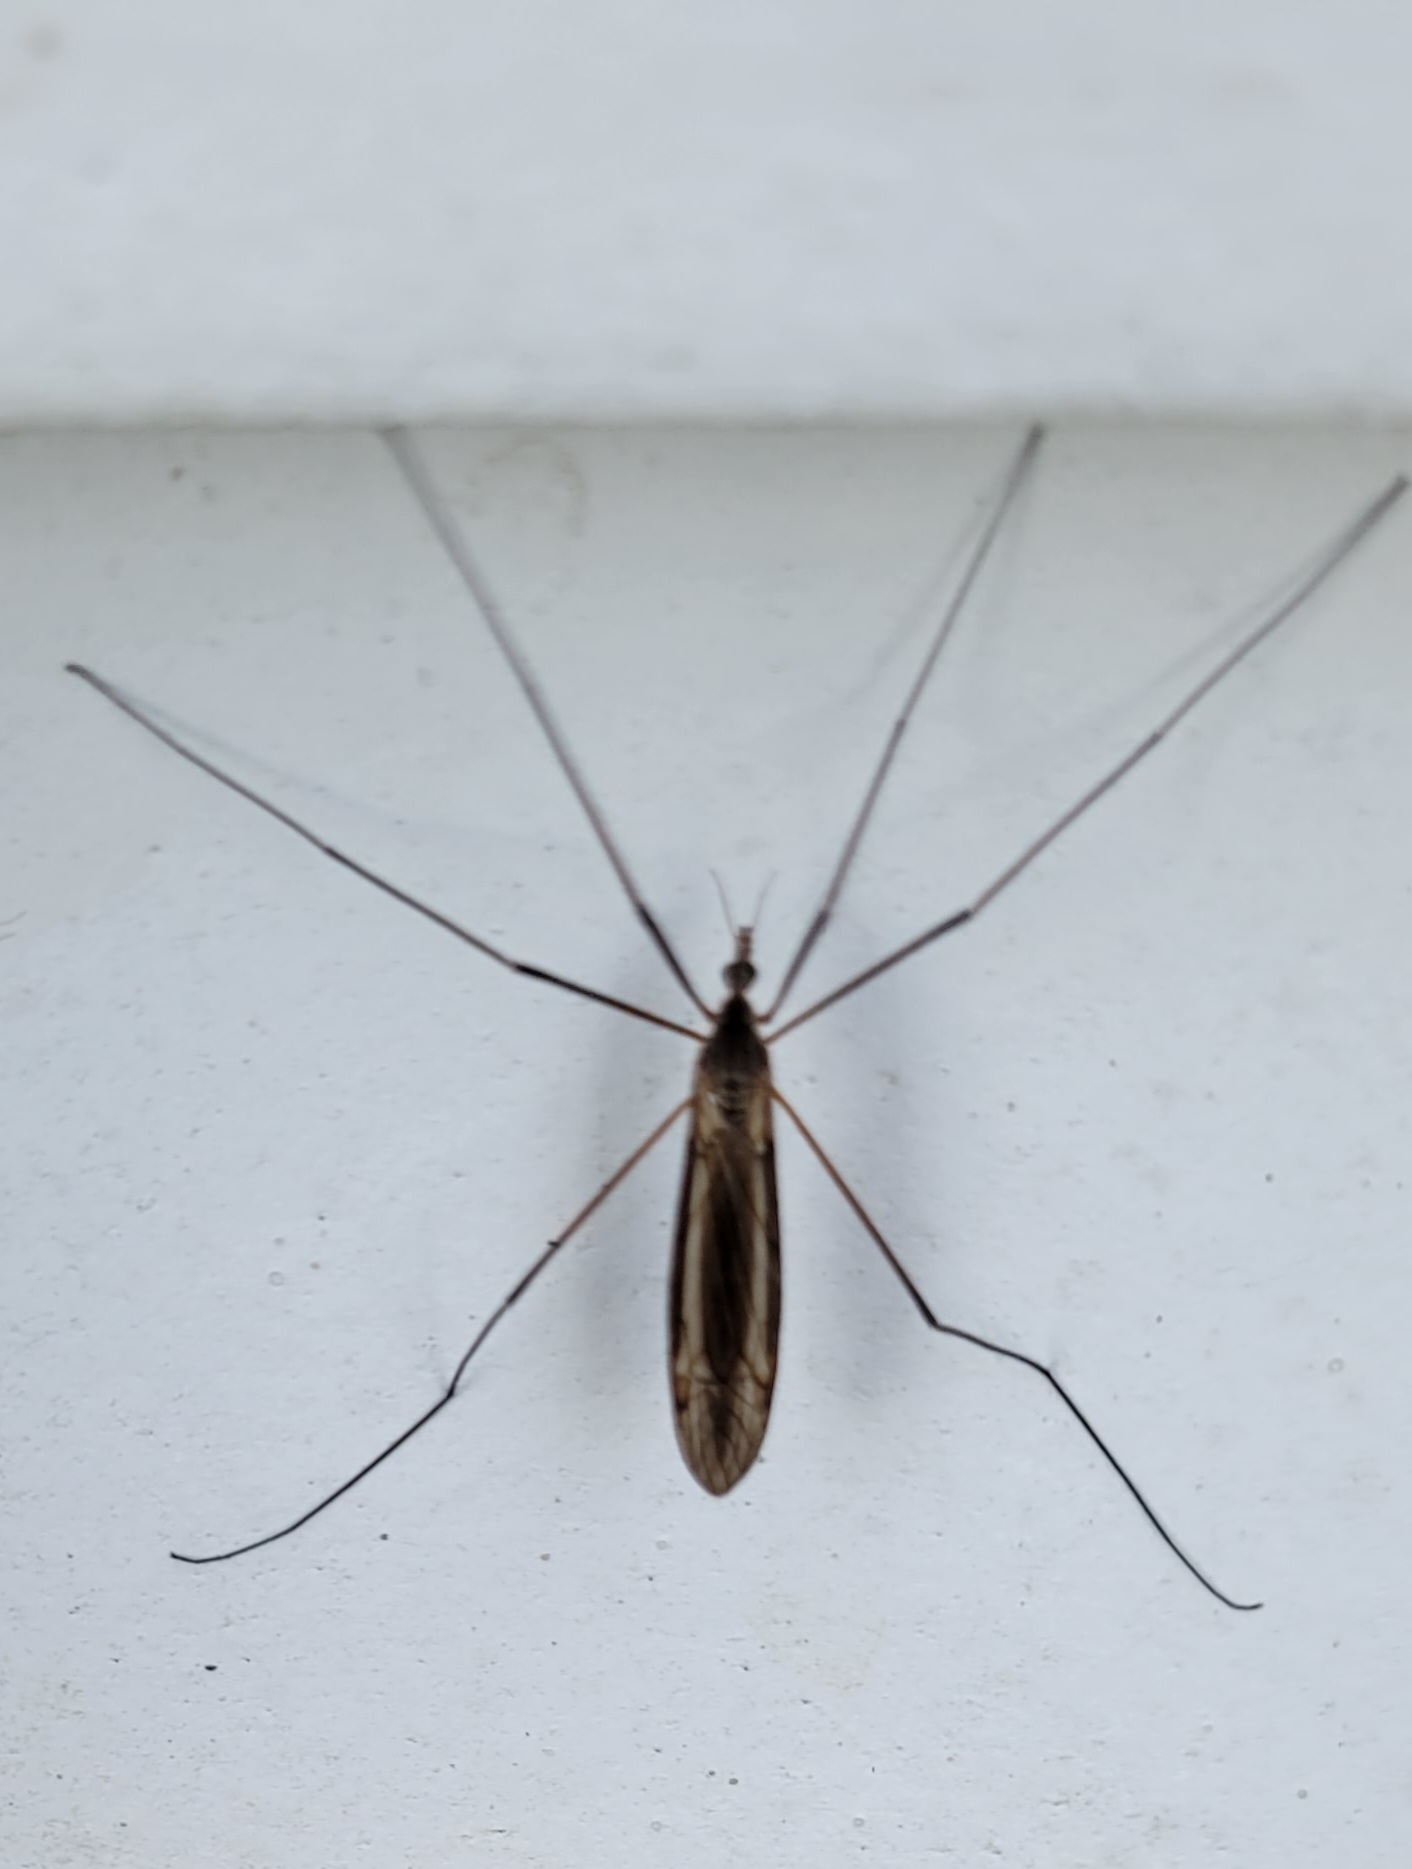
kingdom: Animalia
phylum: Arthropoda
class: Insecta
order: Diptera
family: Tipulidae
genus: Tipula
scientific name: Tipula oleracea
